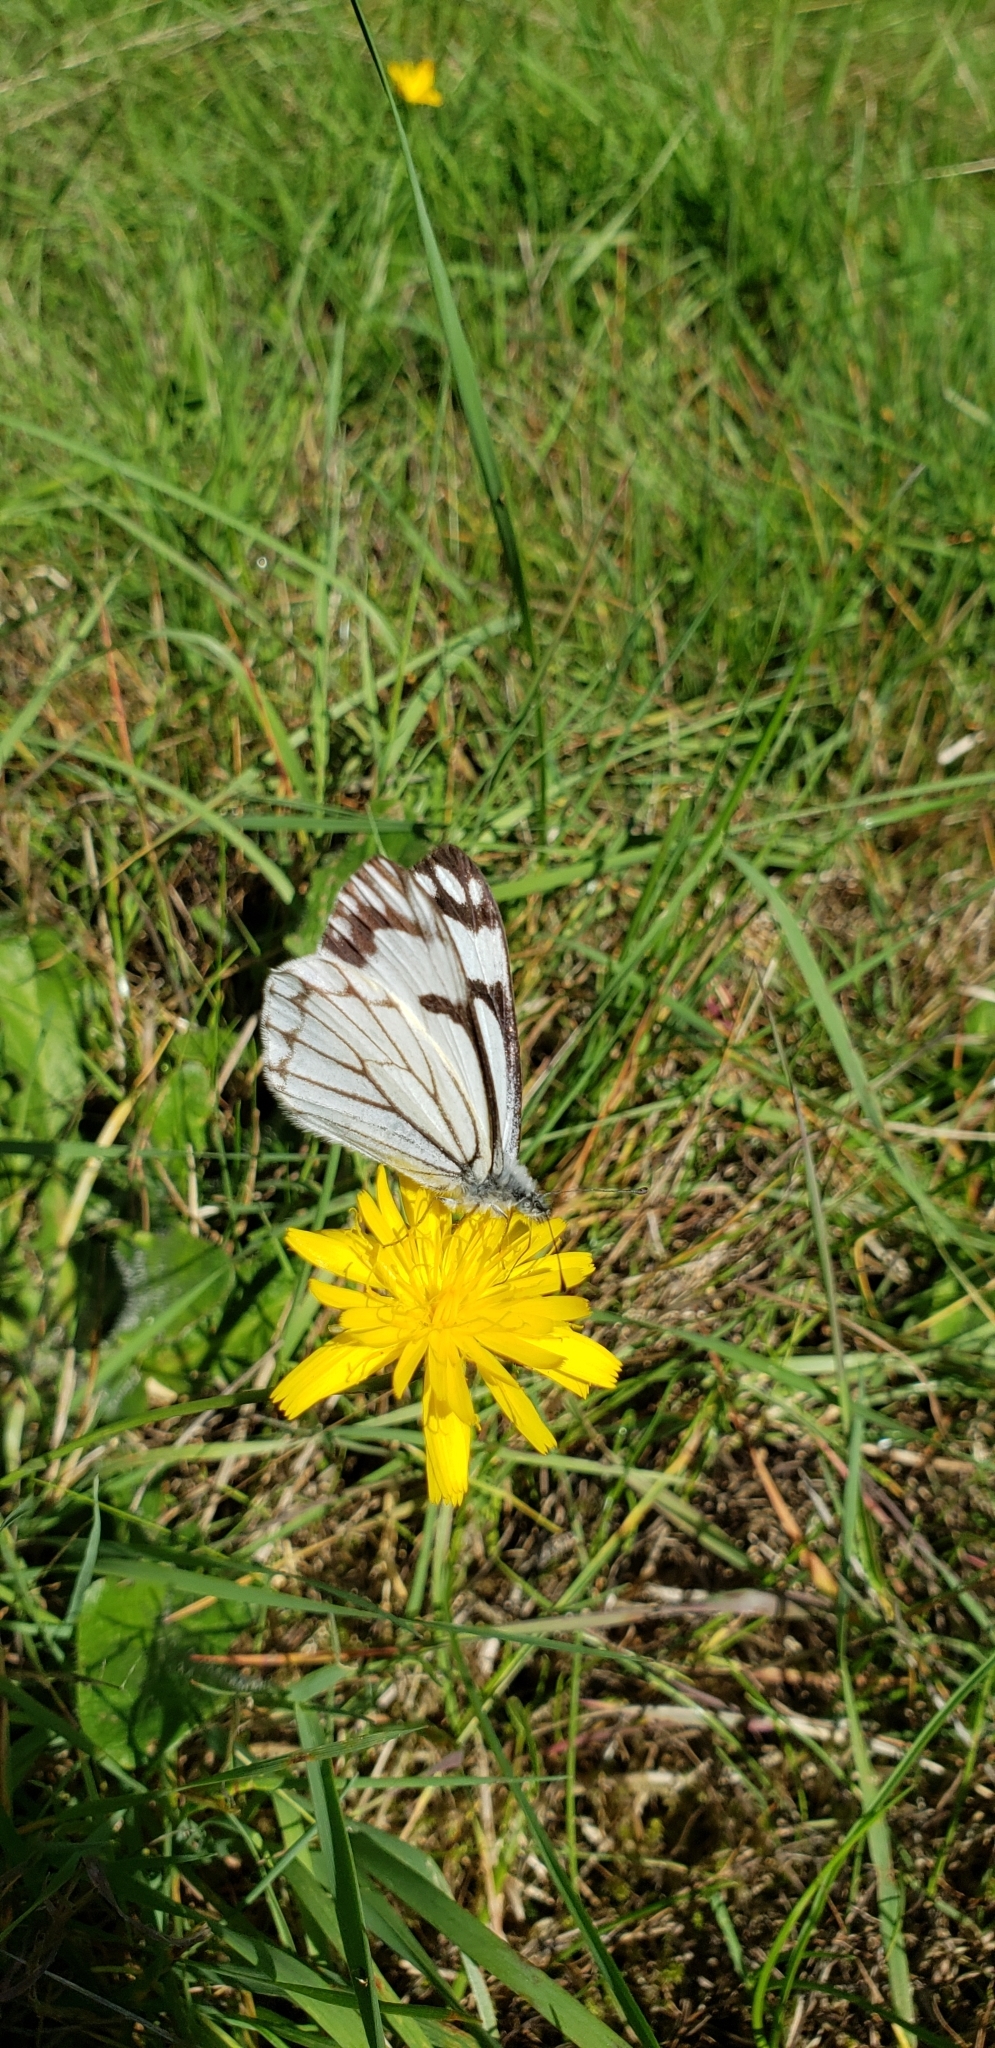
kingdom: Animalia
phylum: Arthropoda
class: Insecta
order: Lepidoptera
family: Pieridae
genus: Neophasia
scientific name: Neophasia menapia
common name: Pine white
